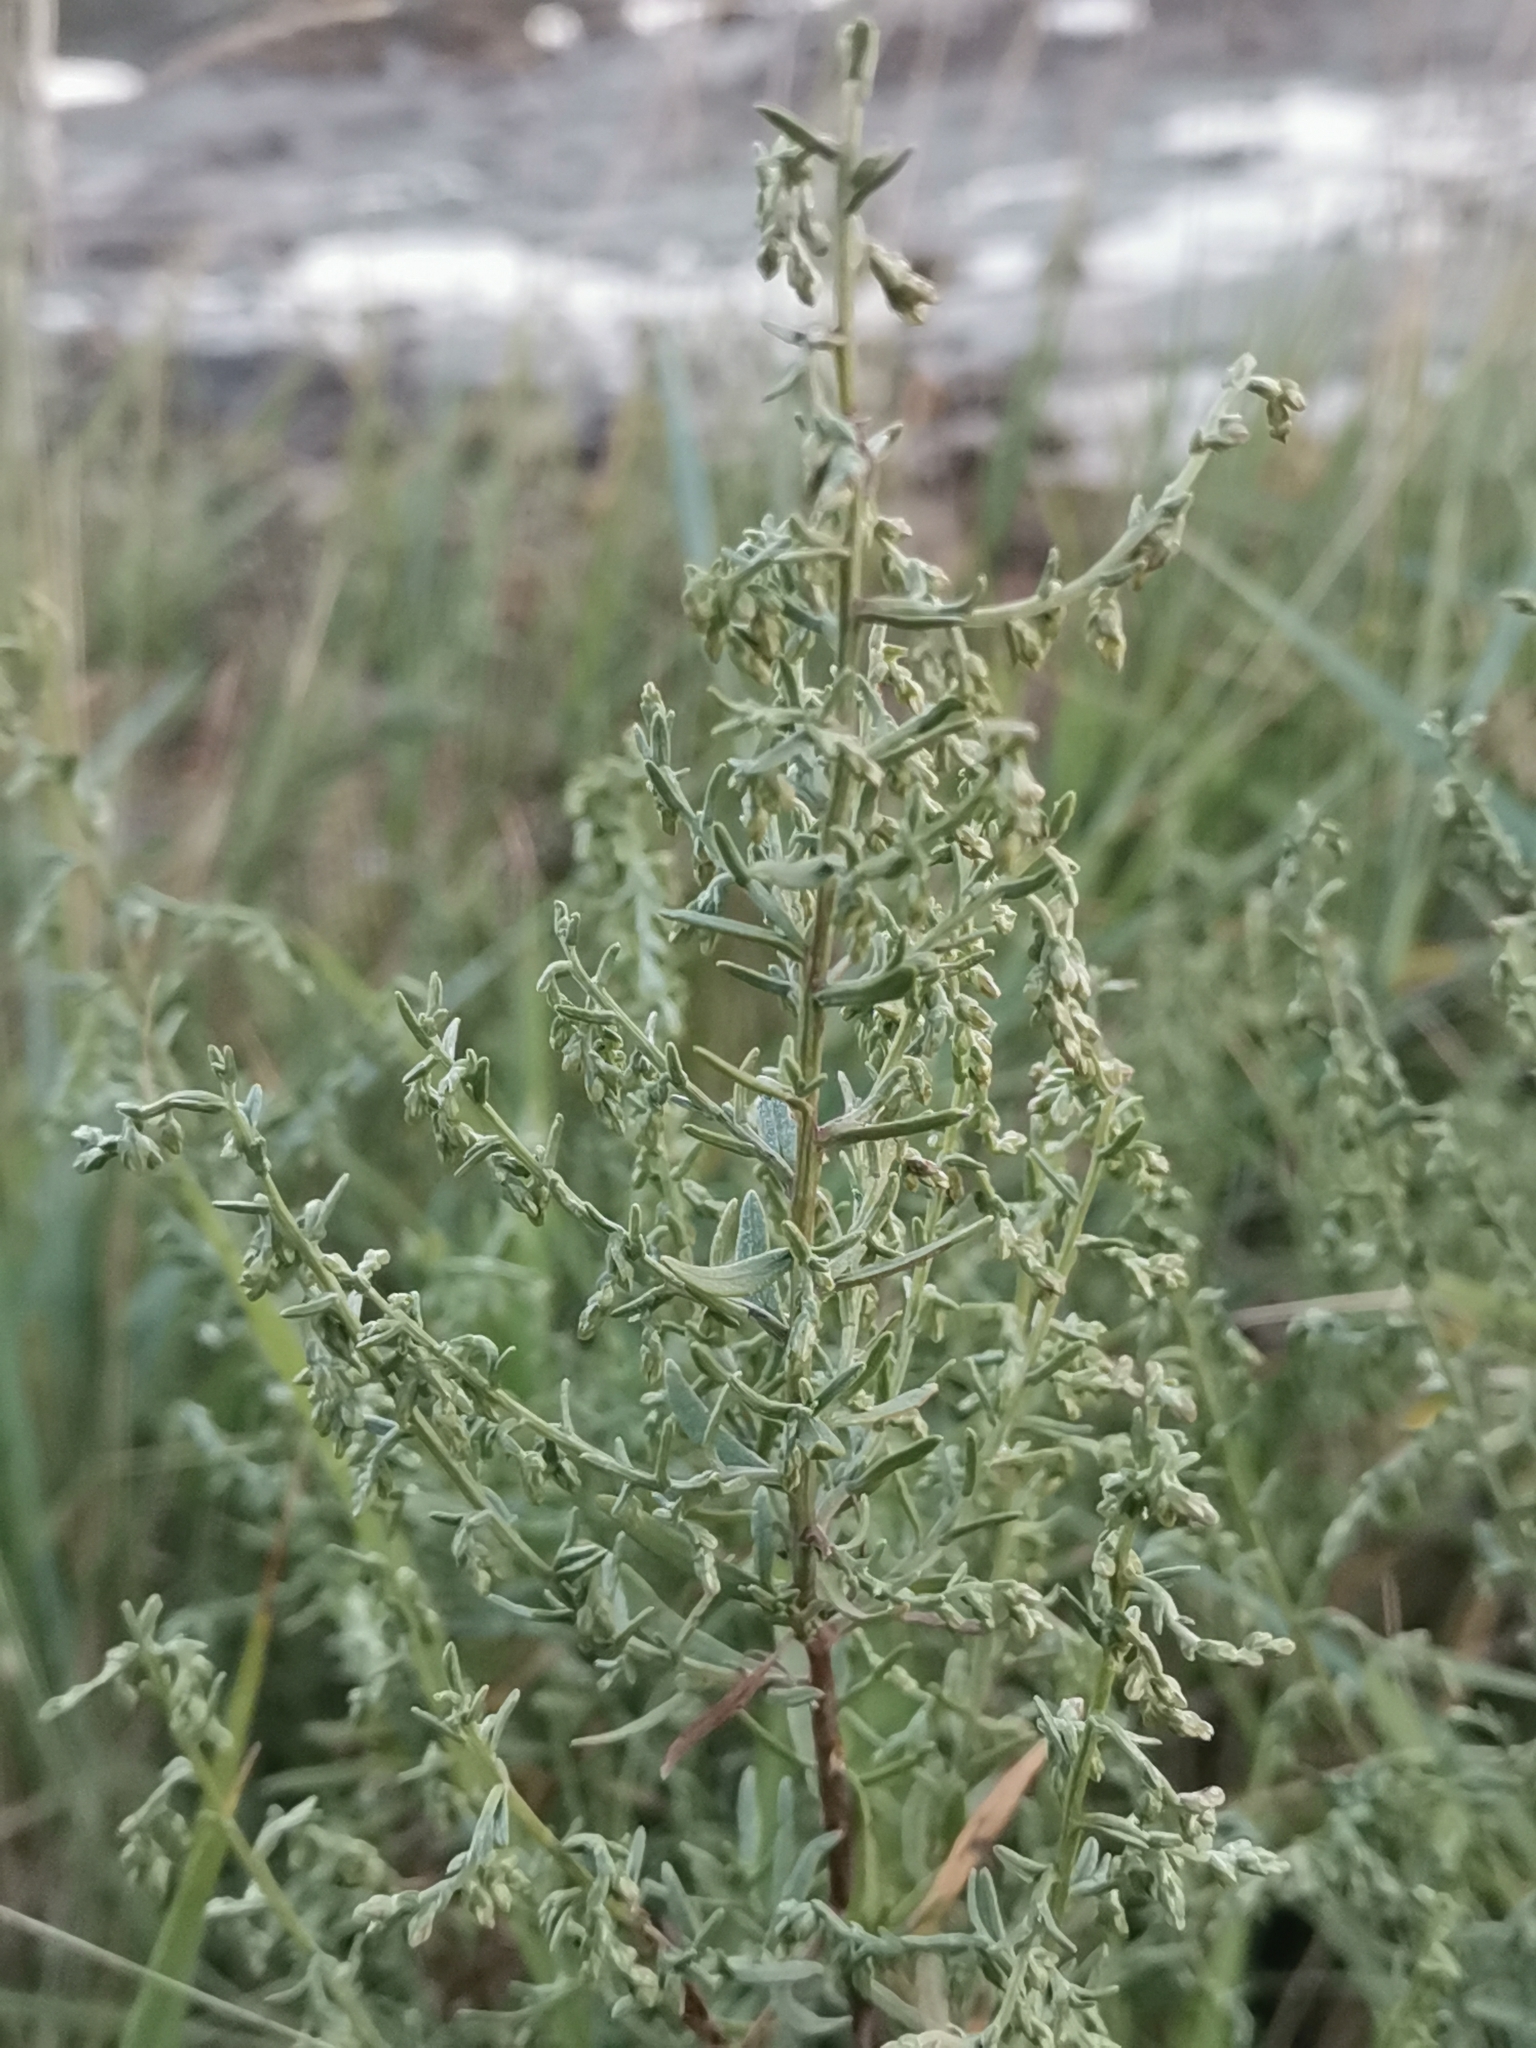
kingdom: Plantae
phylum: Tracheophyta
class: Magnoliopsida
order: Asterales
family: Asteraceae
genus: Artemisia
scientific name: Artemisia caerulescens
